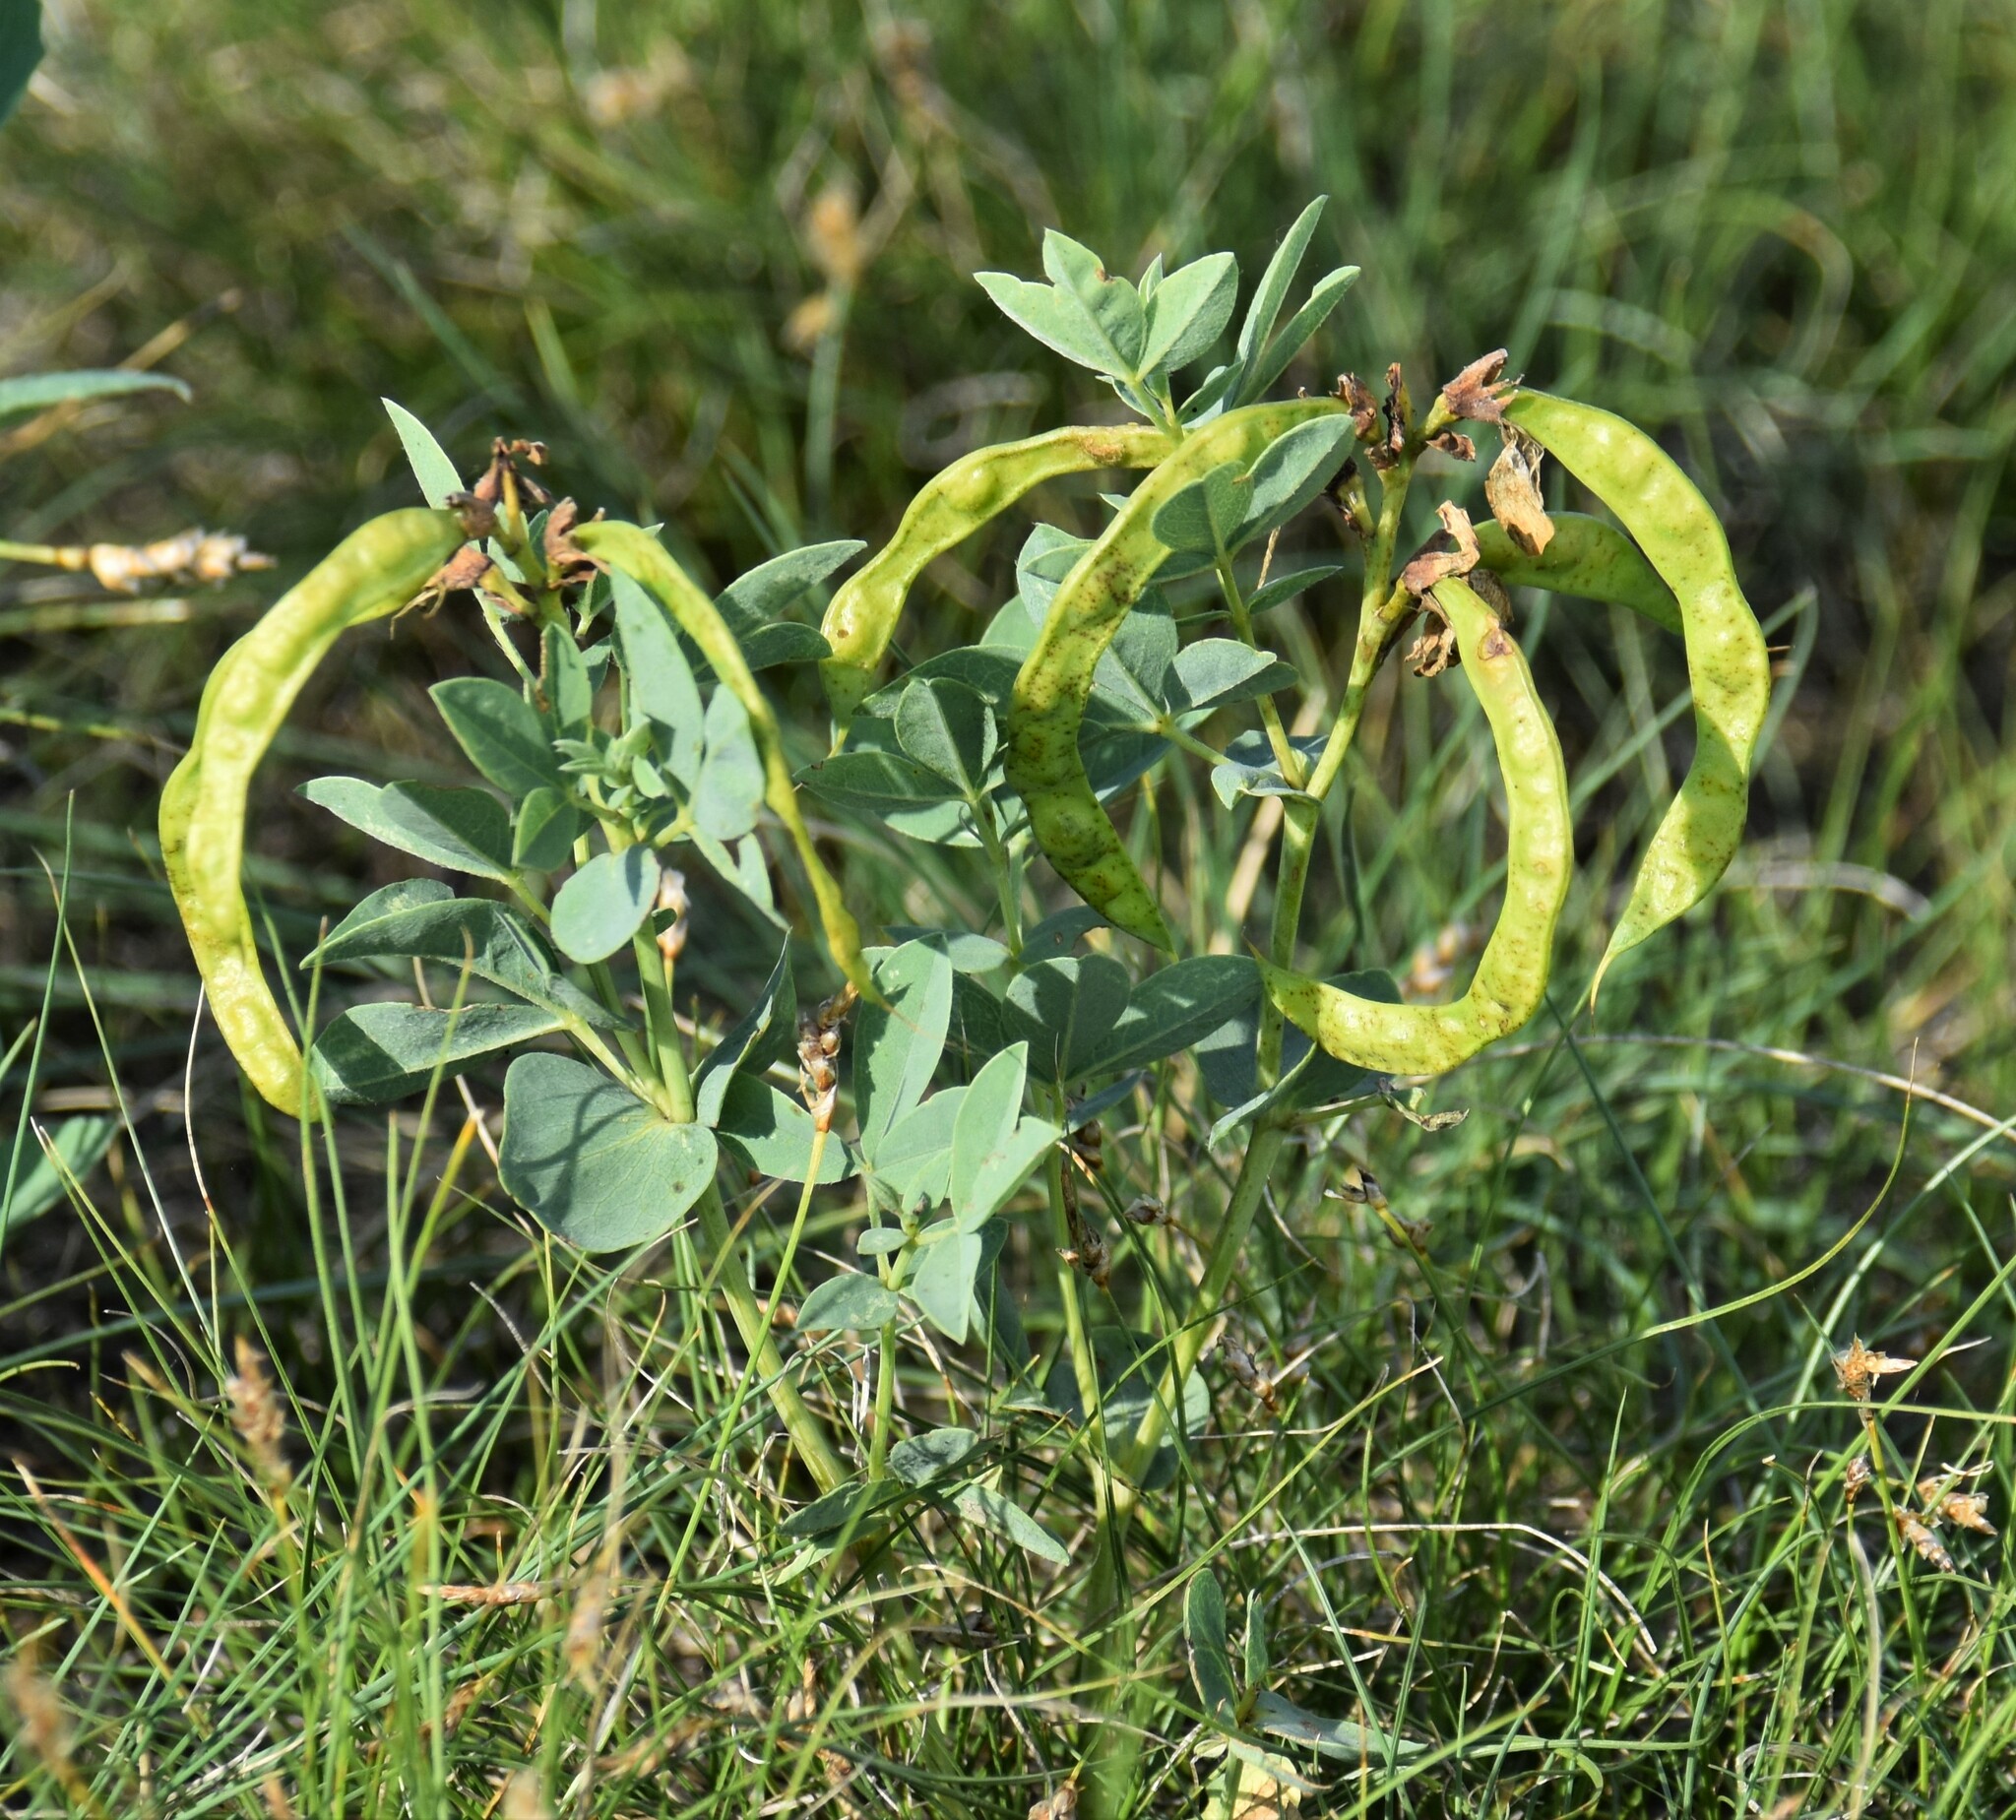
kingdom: Plantae
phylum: Tracheophyta
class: Magnoliopsida
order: Fabales
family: Fabaceae
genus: Thermopsis
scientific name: Thermopsis rhombifolia
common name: Circle-pod-pea
